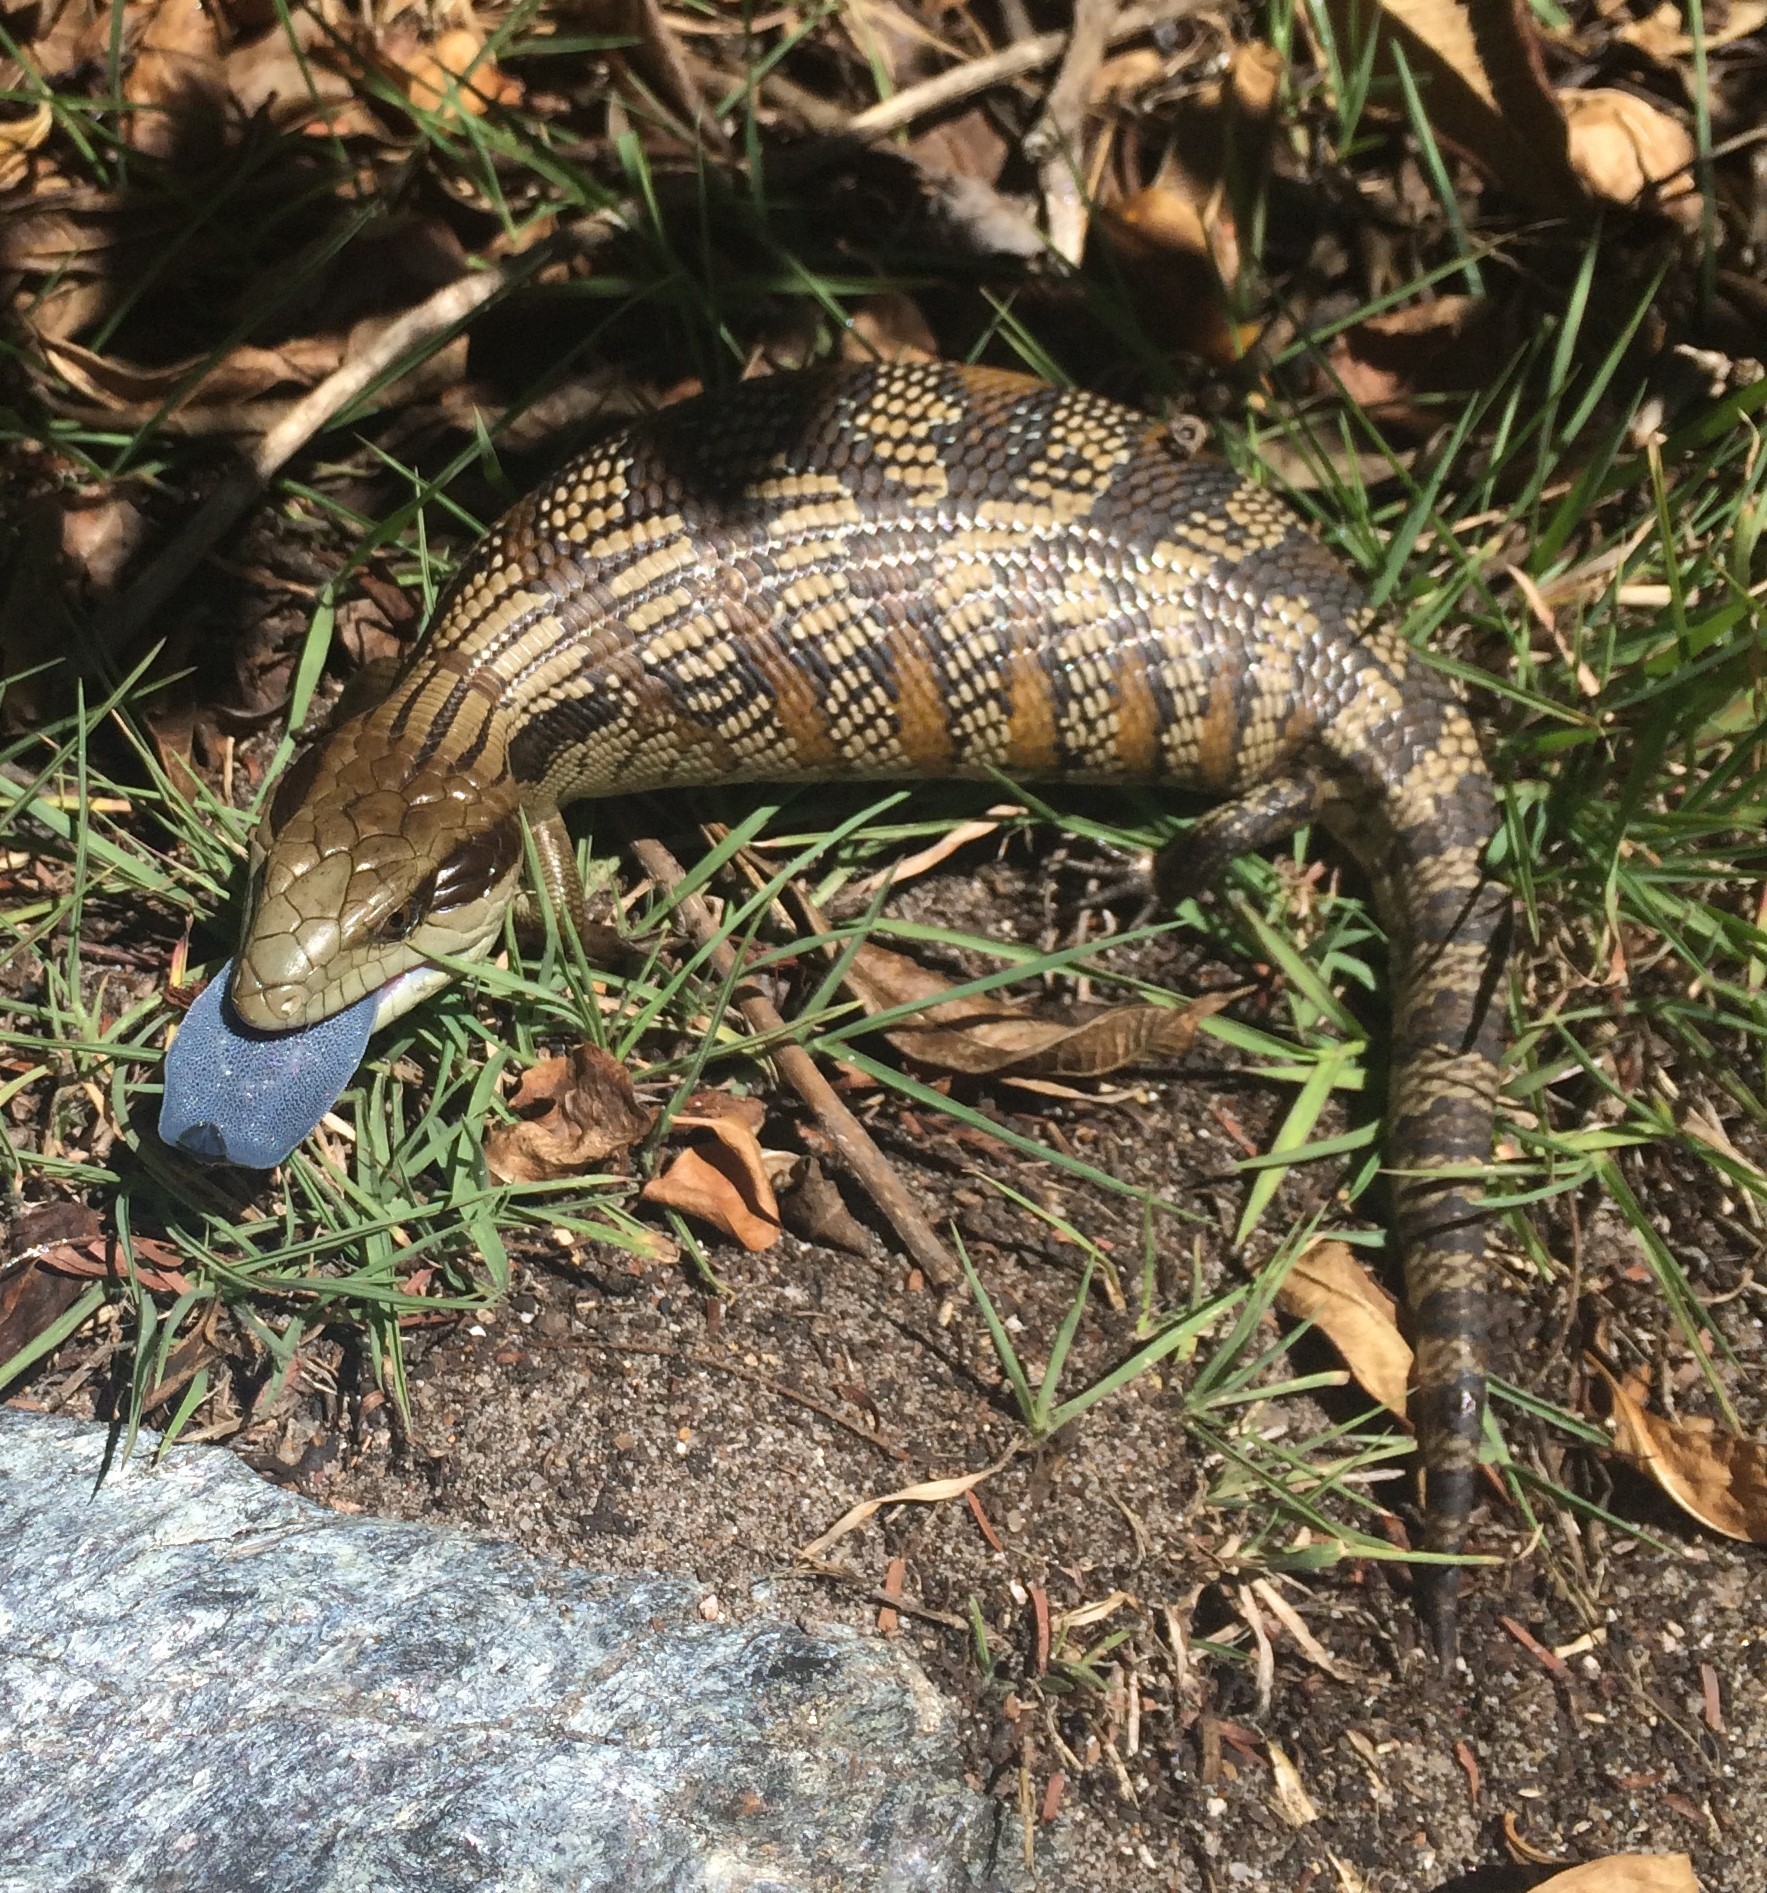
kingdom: Animalia
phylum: Chordata
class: Squamata
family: Scincidae
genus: Tiliqua
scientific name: Tiliqua scincoides
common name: Common bluetongue
